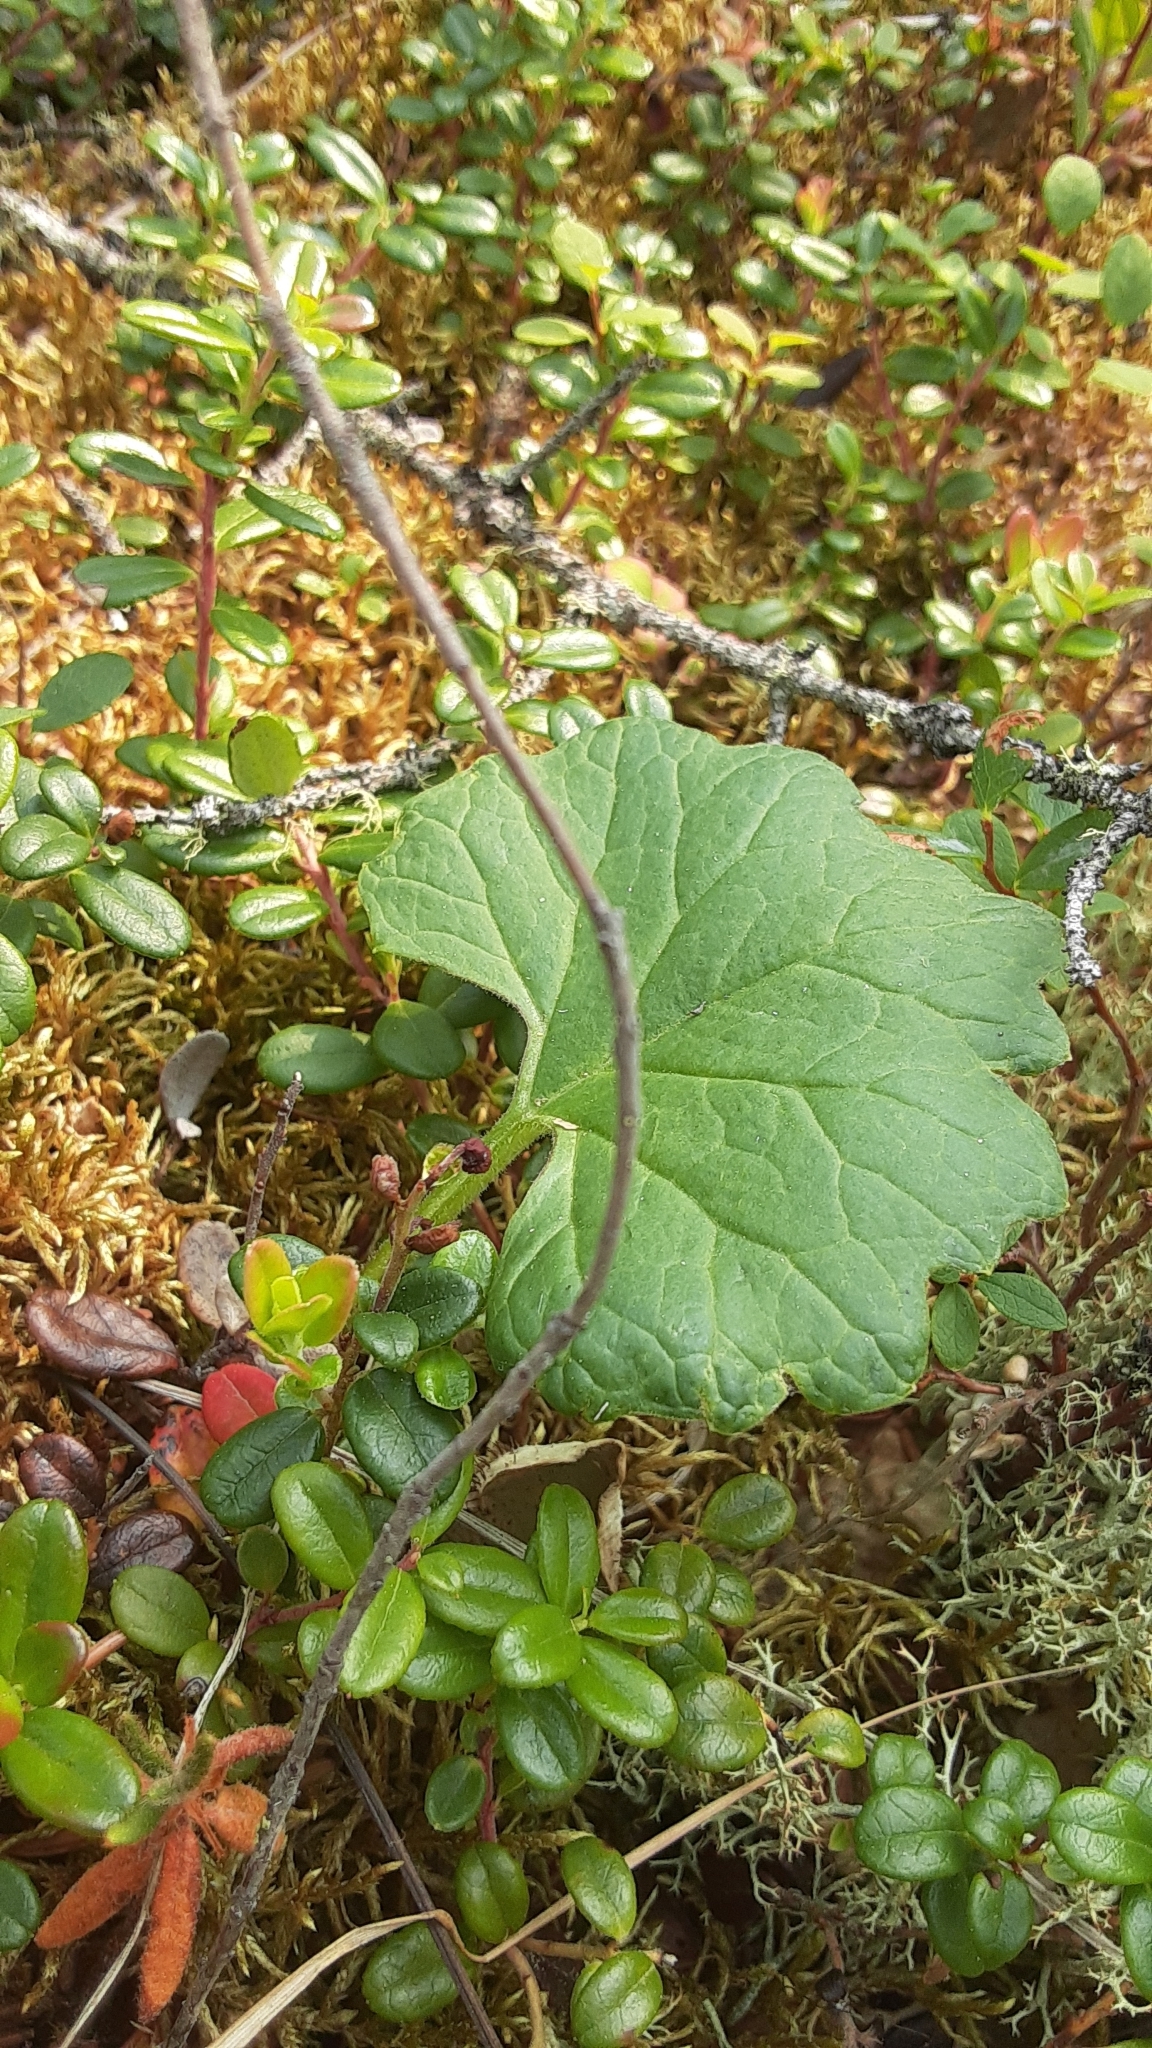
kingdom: Plantae
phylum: Tracheophyta
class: Magnoliopsida
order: Asterales
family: Asteraceae
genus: Petasites
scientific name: Petasites frigidus
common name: Arctic butterbur
